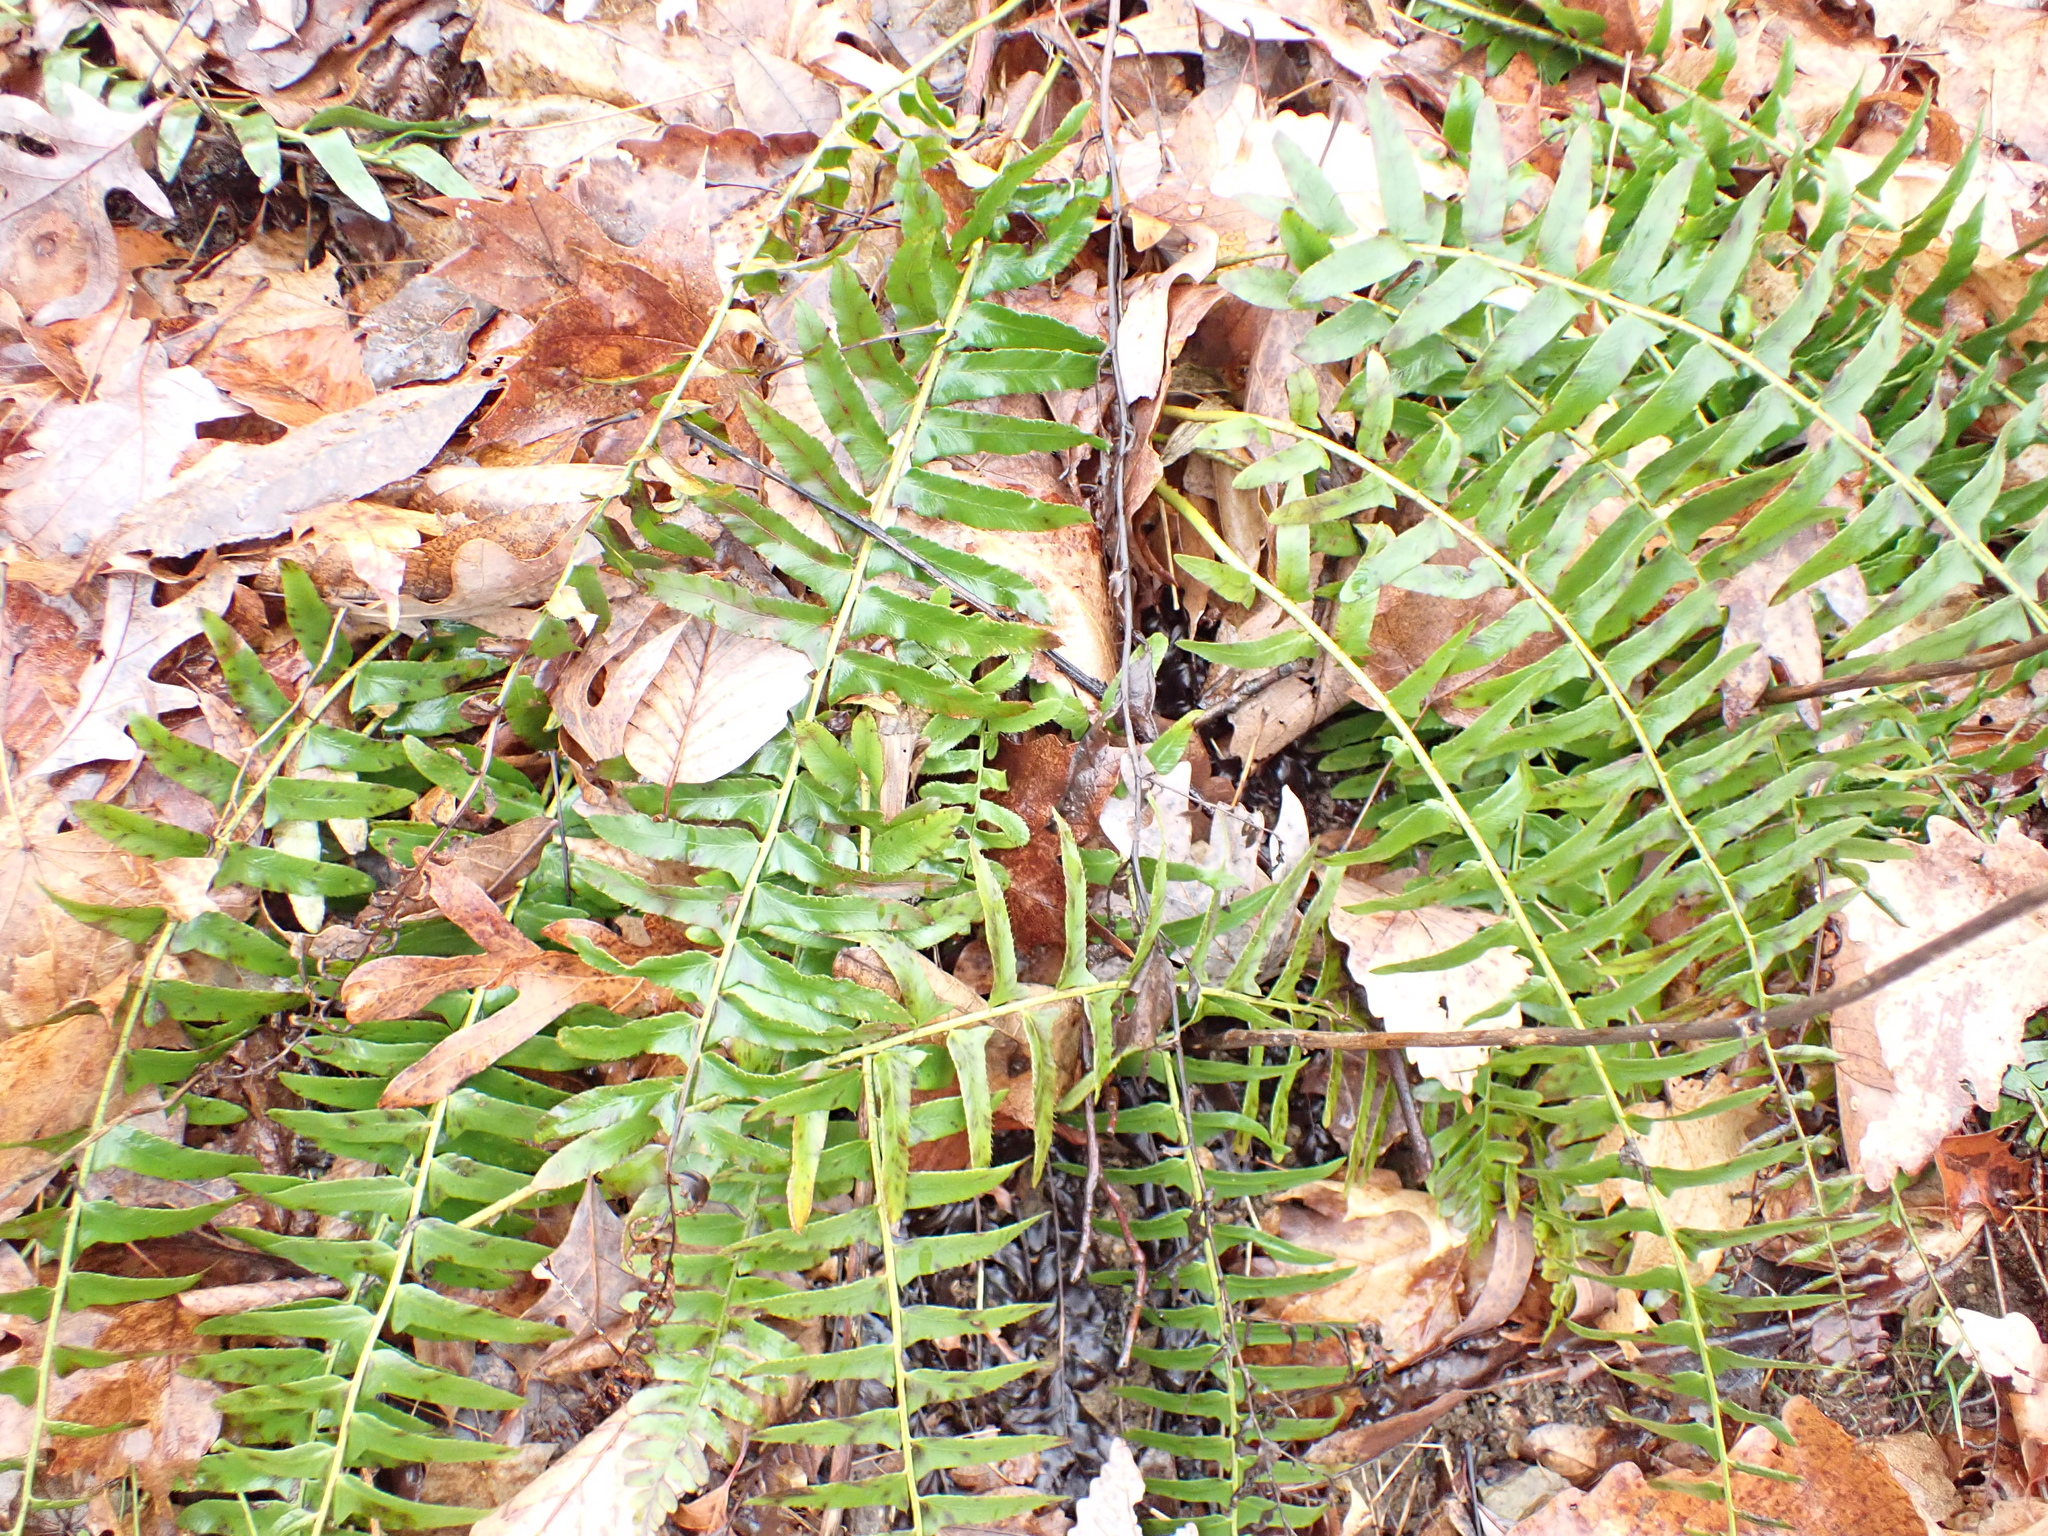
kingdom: Plantae
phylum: Tracheophyta
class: Polypodiopsida
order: Polypodiales
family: Dryopteridaceae
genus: Polystichum
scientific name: Polystichum acrostichoides
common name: Christmas fern
